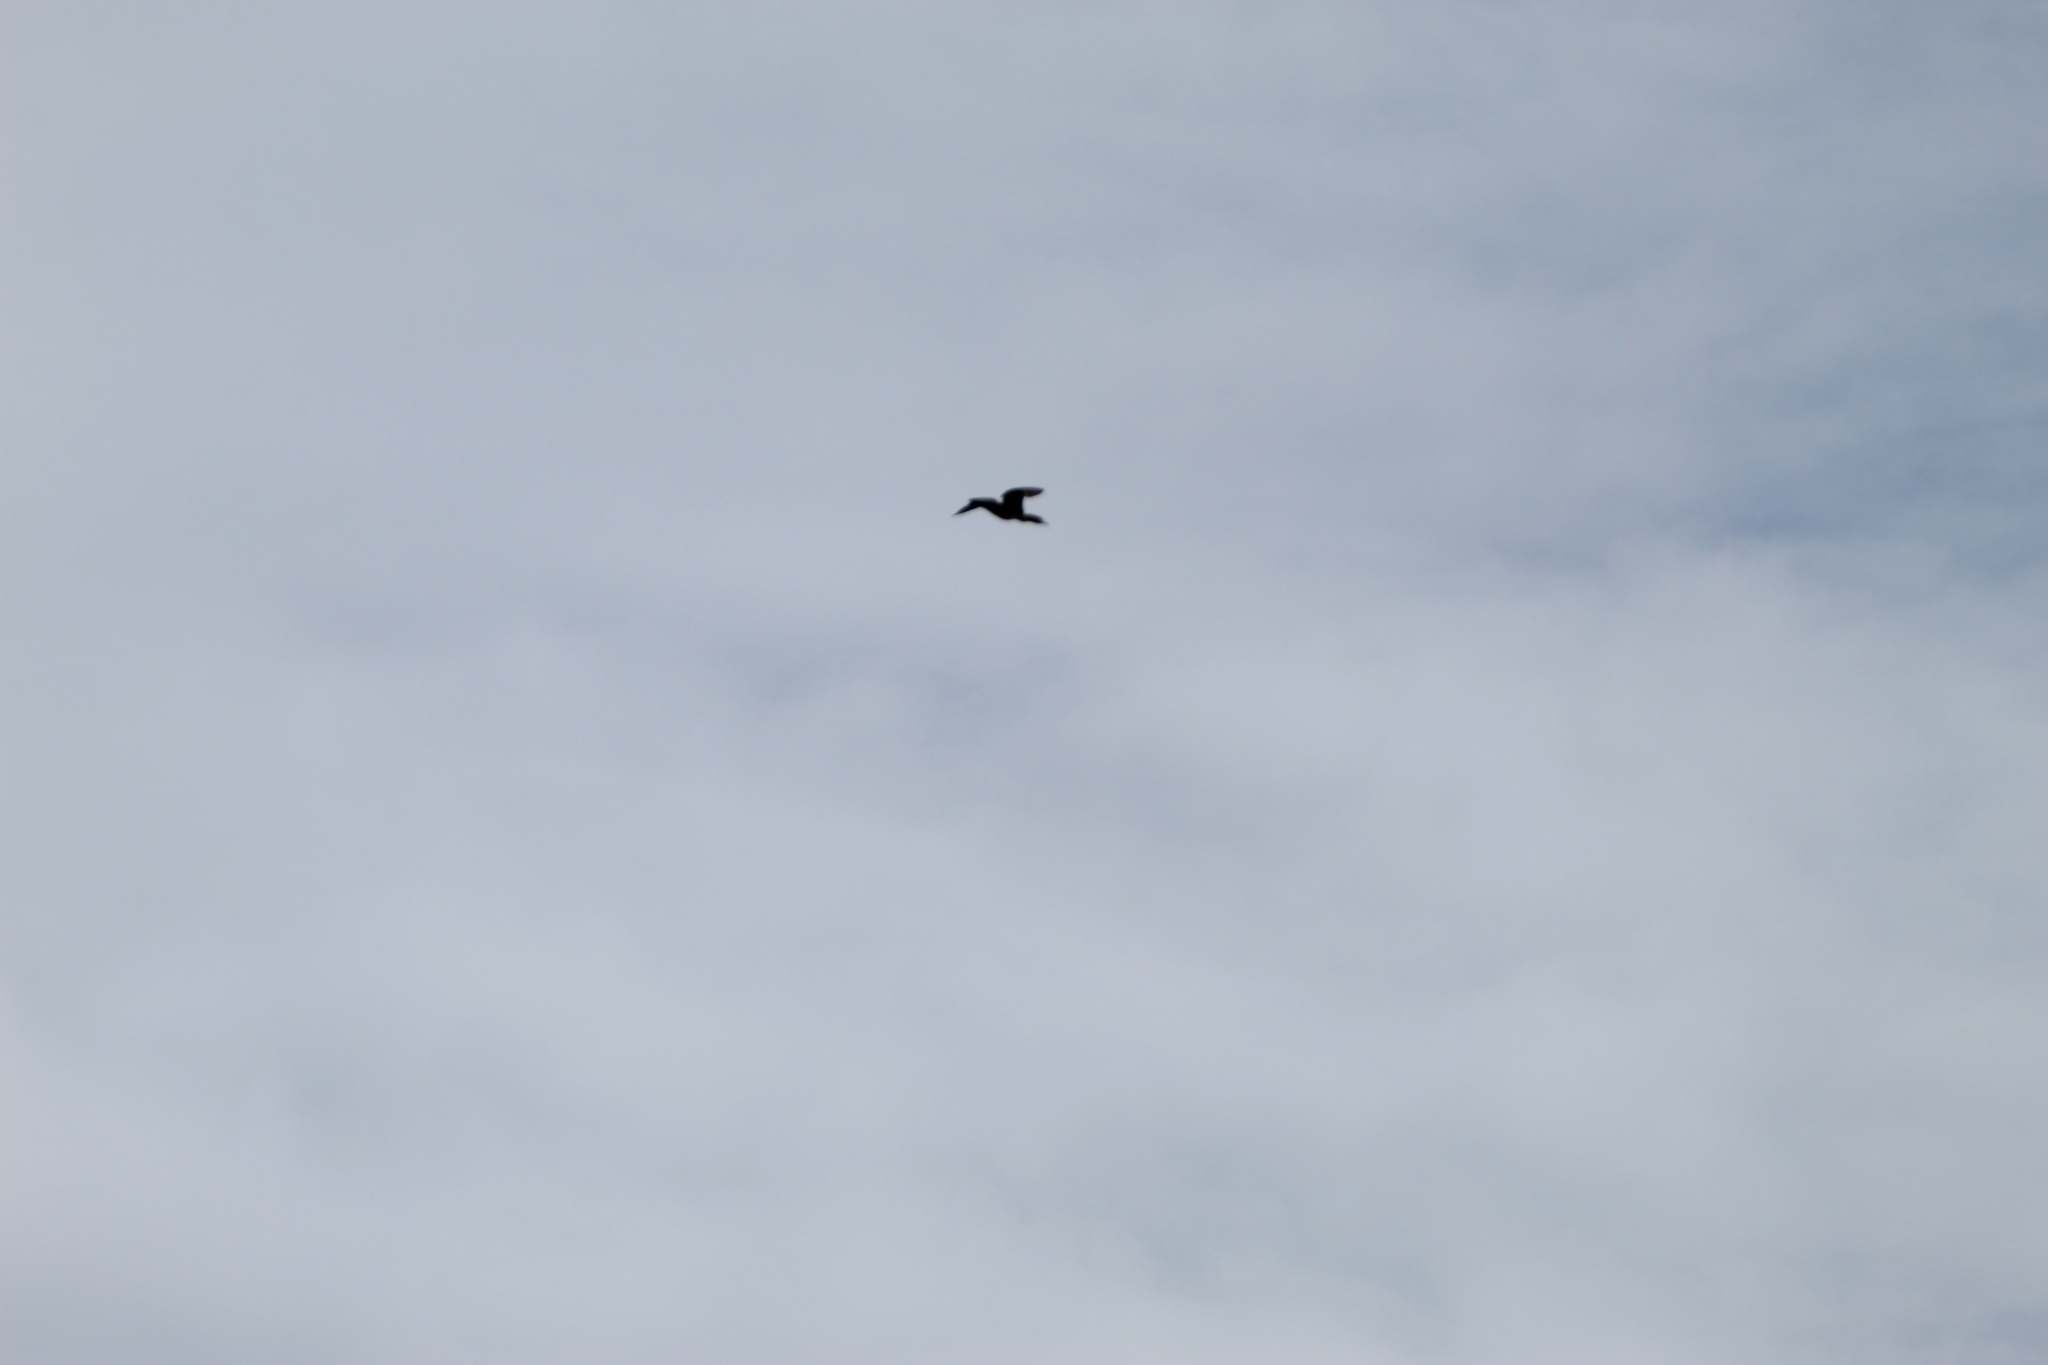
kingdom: Animalia
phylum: Chordata
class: Aves
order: Suliformes
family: Phalacrocoracidae
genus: Phalacrocorax
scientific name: Phalacrocorax carbo
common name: Great cormorant
